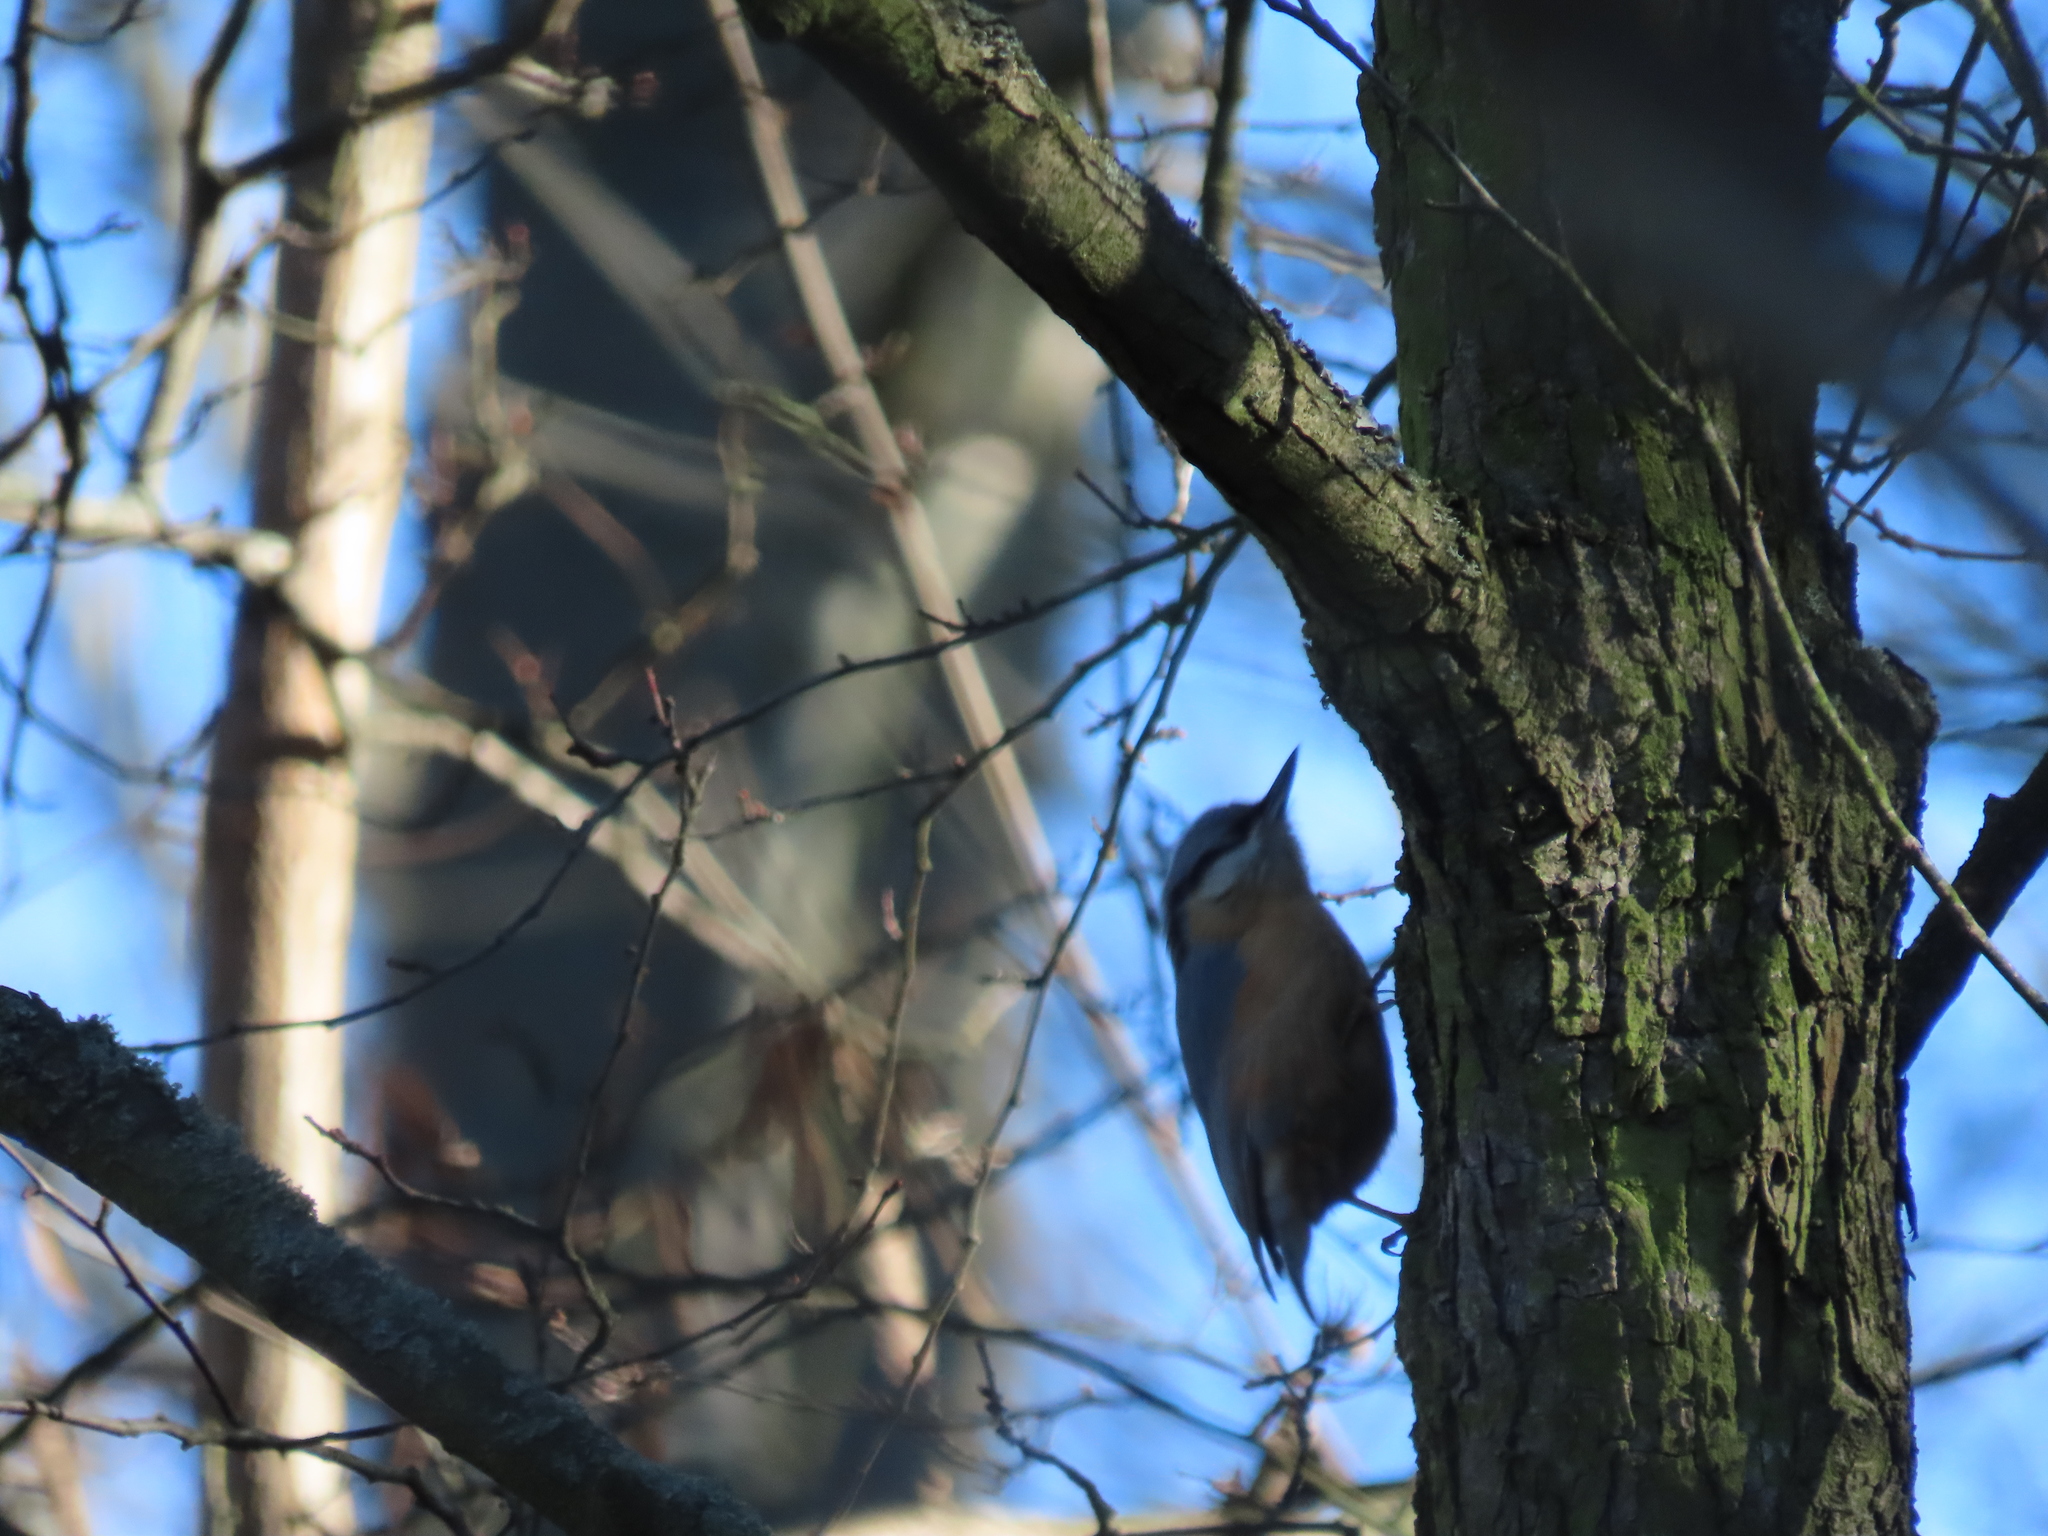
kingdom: Animalia
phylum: Chordata
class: Aves
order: Passeriformes
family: Sittidae
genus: Sitta
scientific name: Sitta europaea
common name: Eurasian nuthatch
